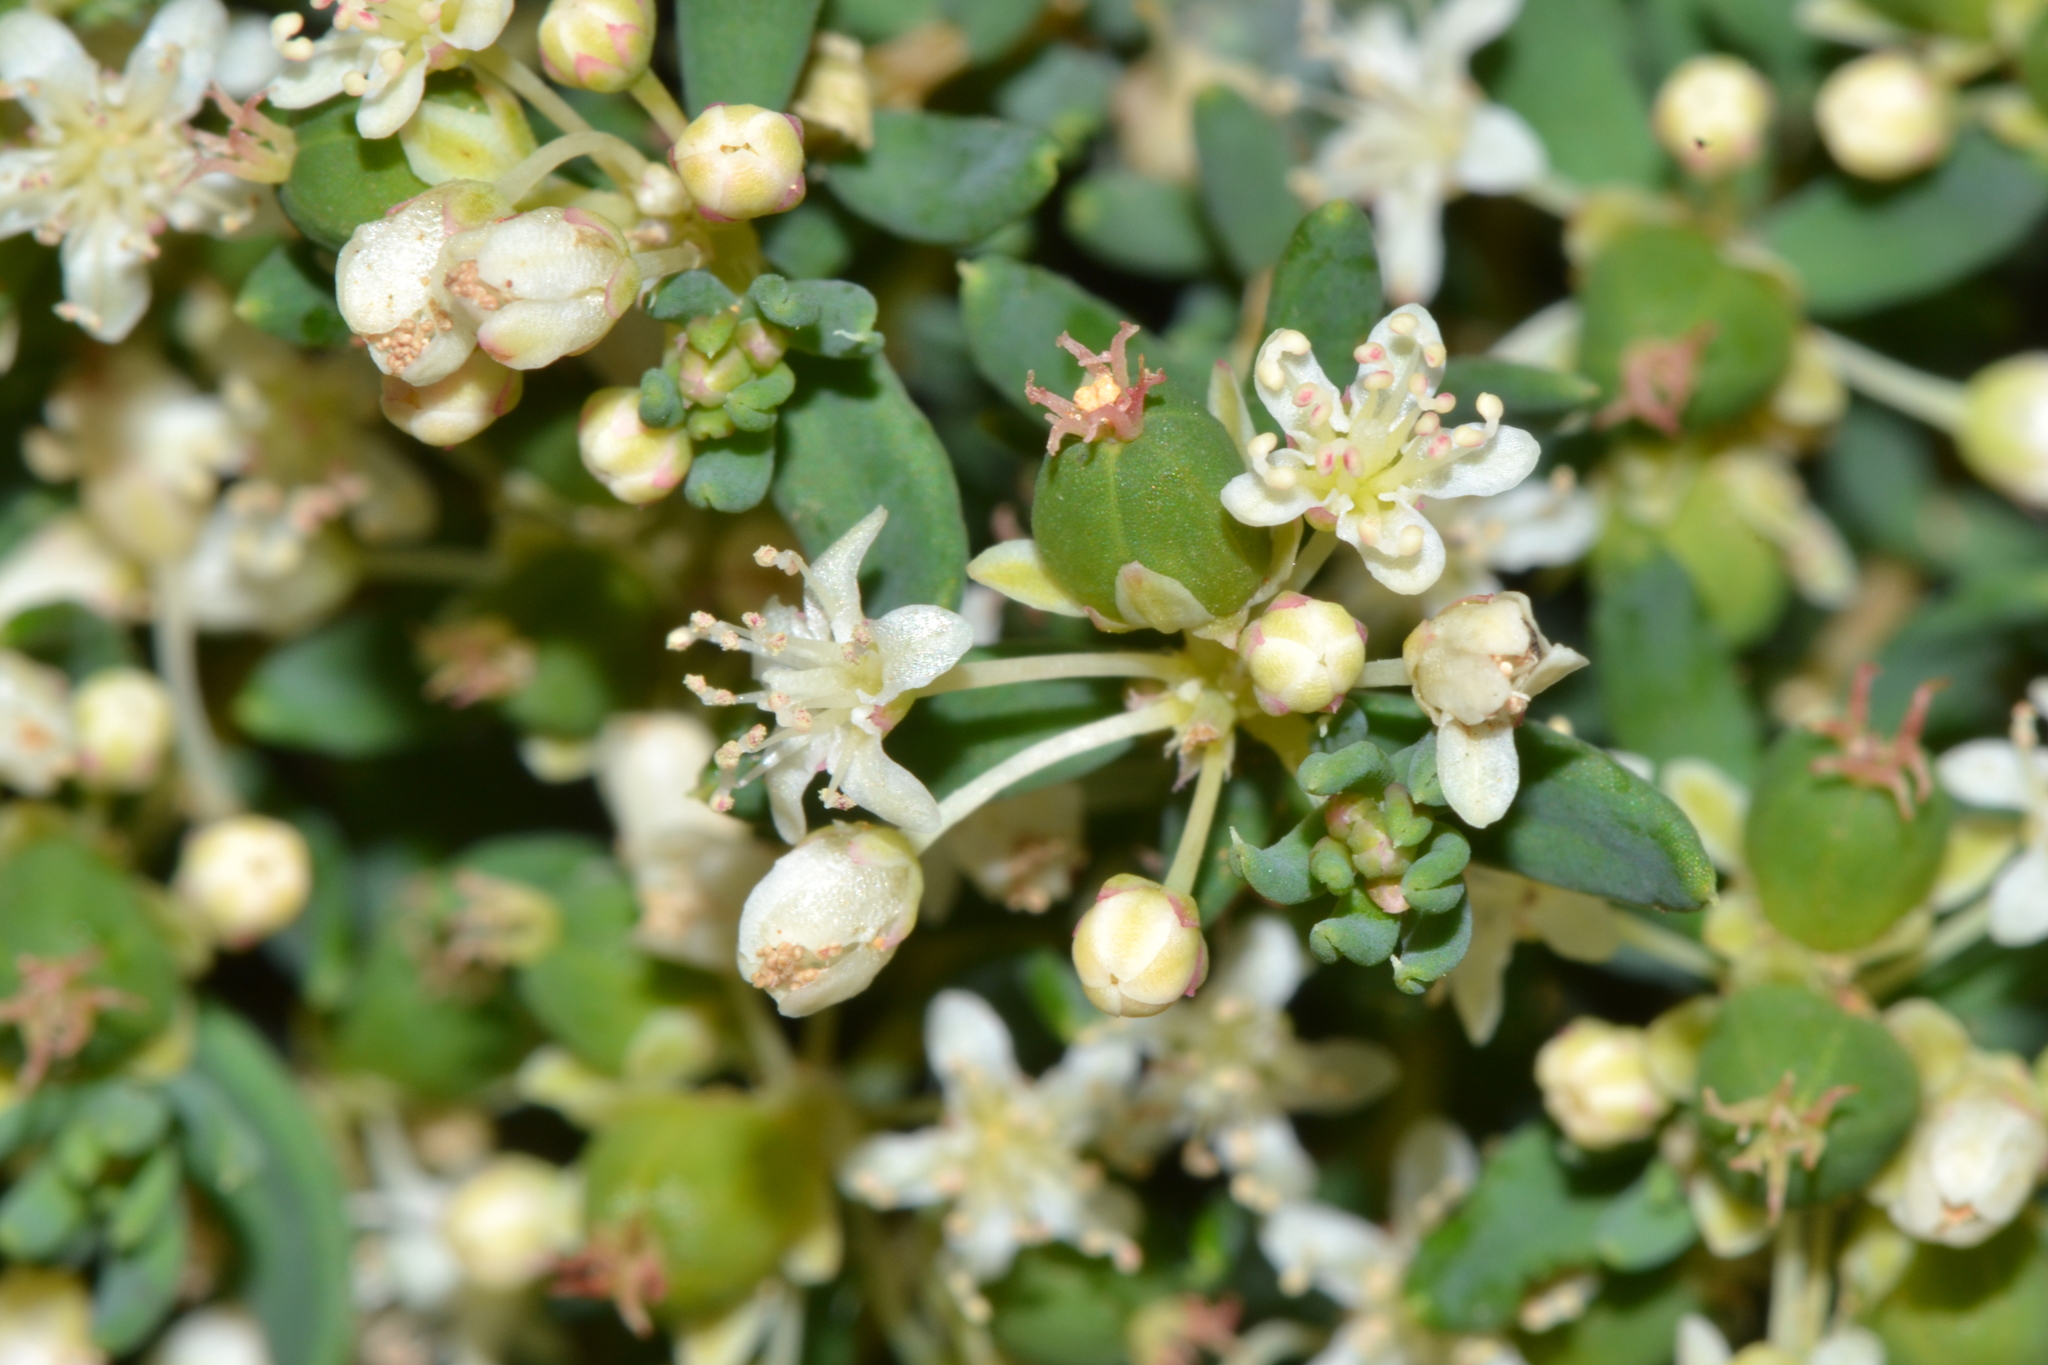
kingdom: Plantae
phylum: Tracheophyta
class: Magnoliopsida
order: Malpighiales
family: Euphorbiaceae
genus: Monotaxis
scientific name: Monotaxis grandiflora
